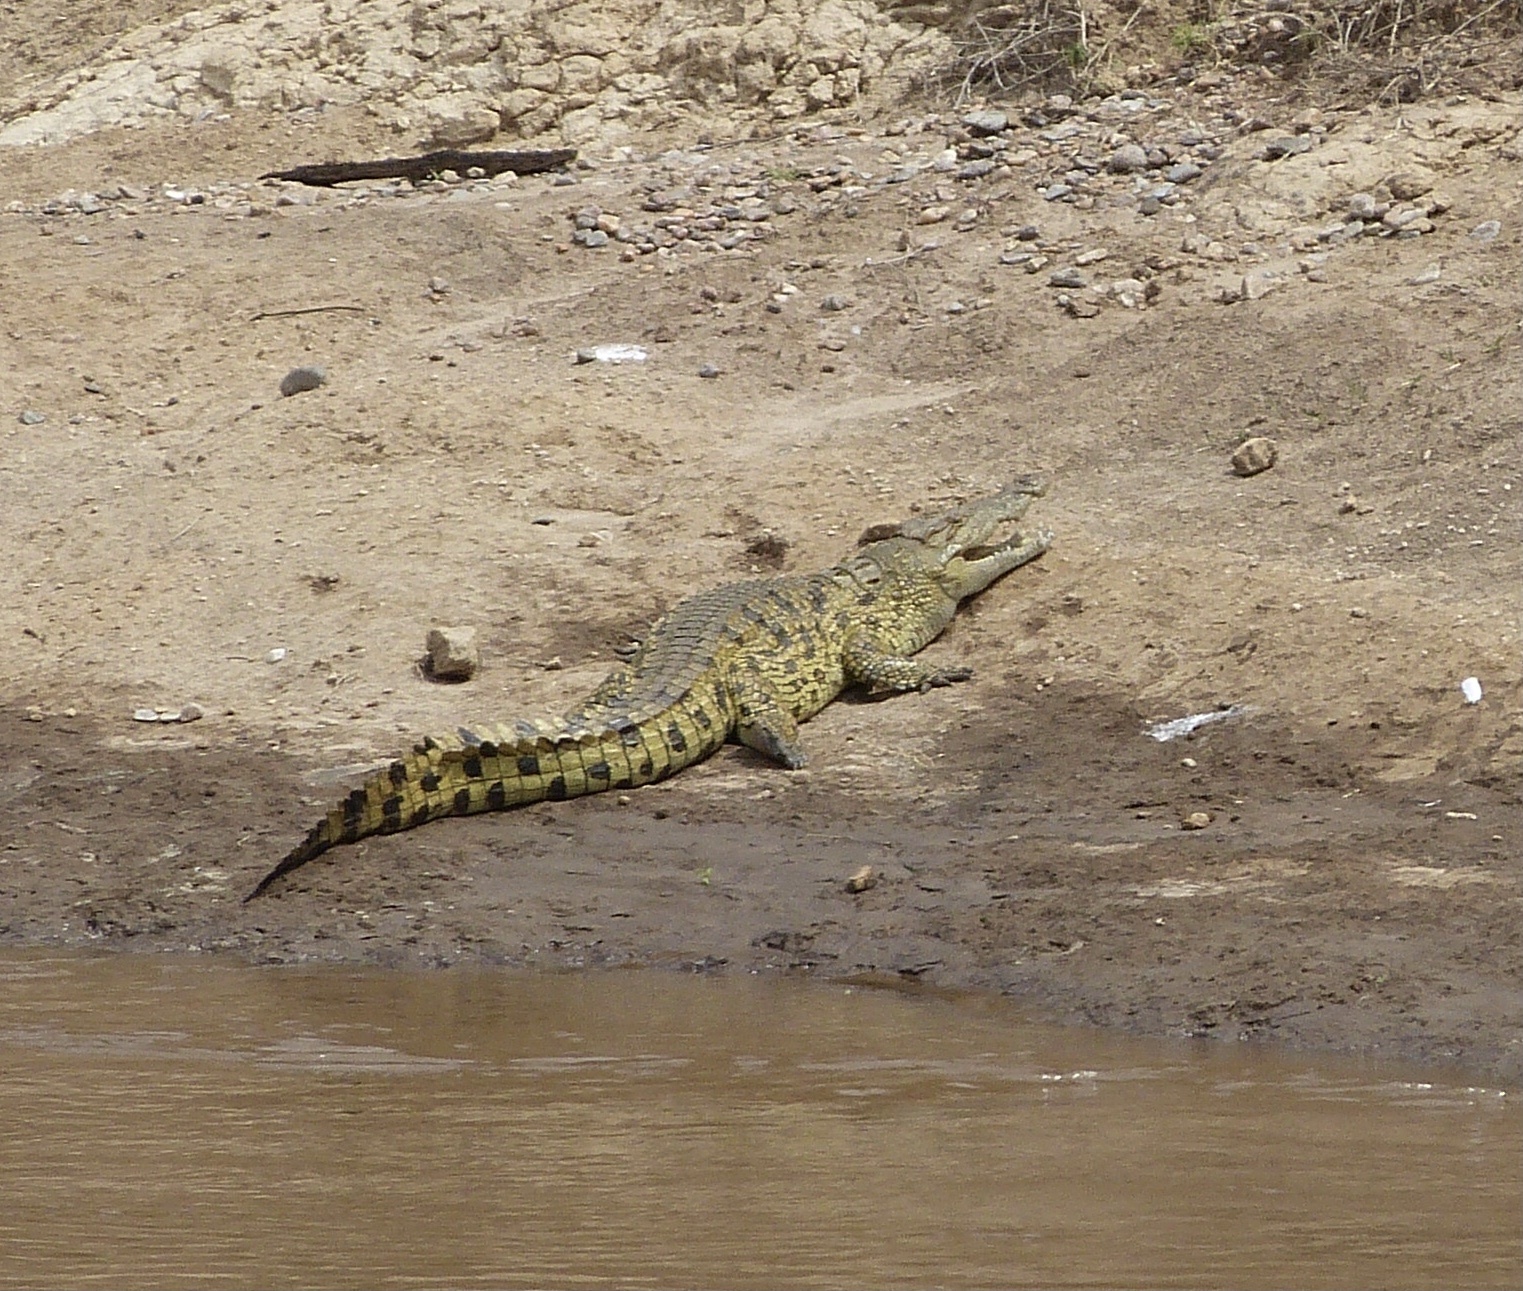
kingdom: Animalia
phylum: Chordata
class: Crocodylia
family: Crocodylidae
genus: Crocodylus
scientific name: Crocodylus niloticus
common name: Nile crocodile
